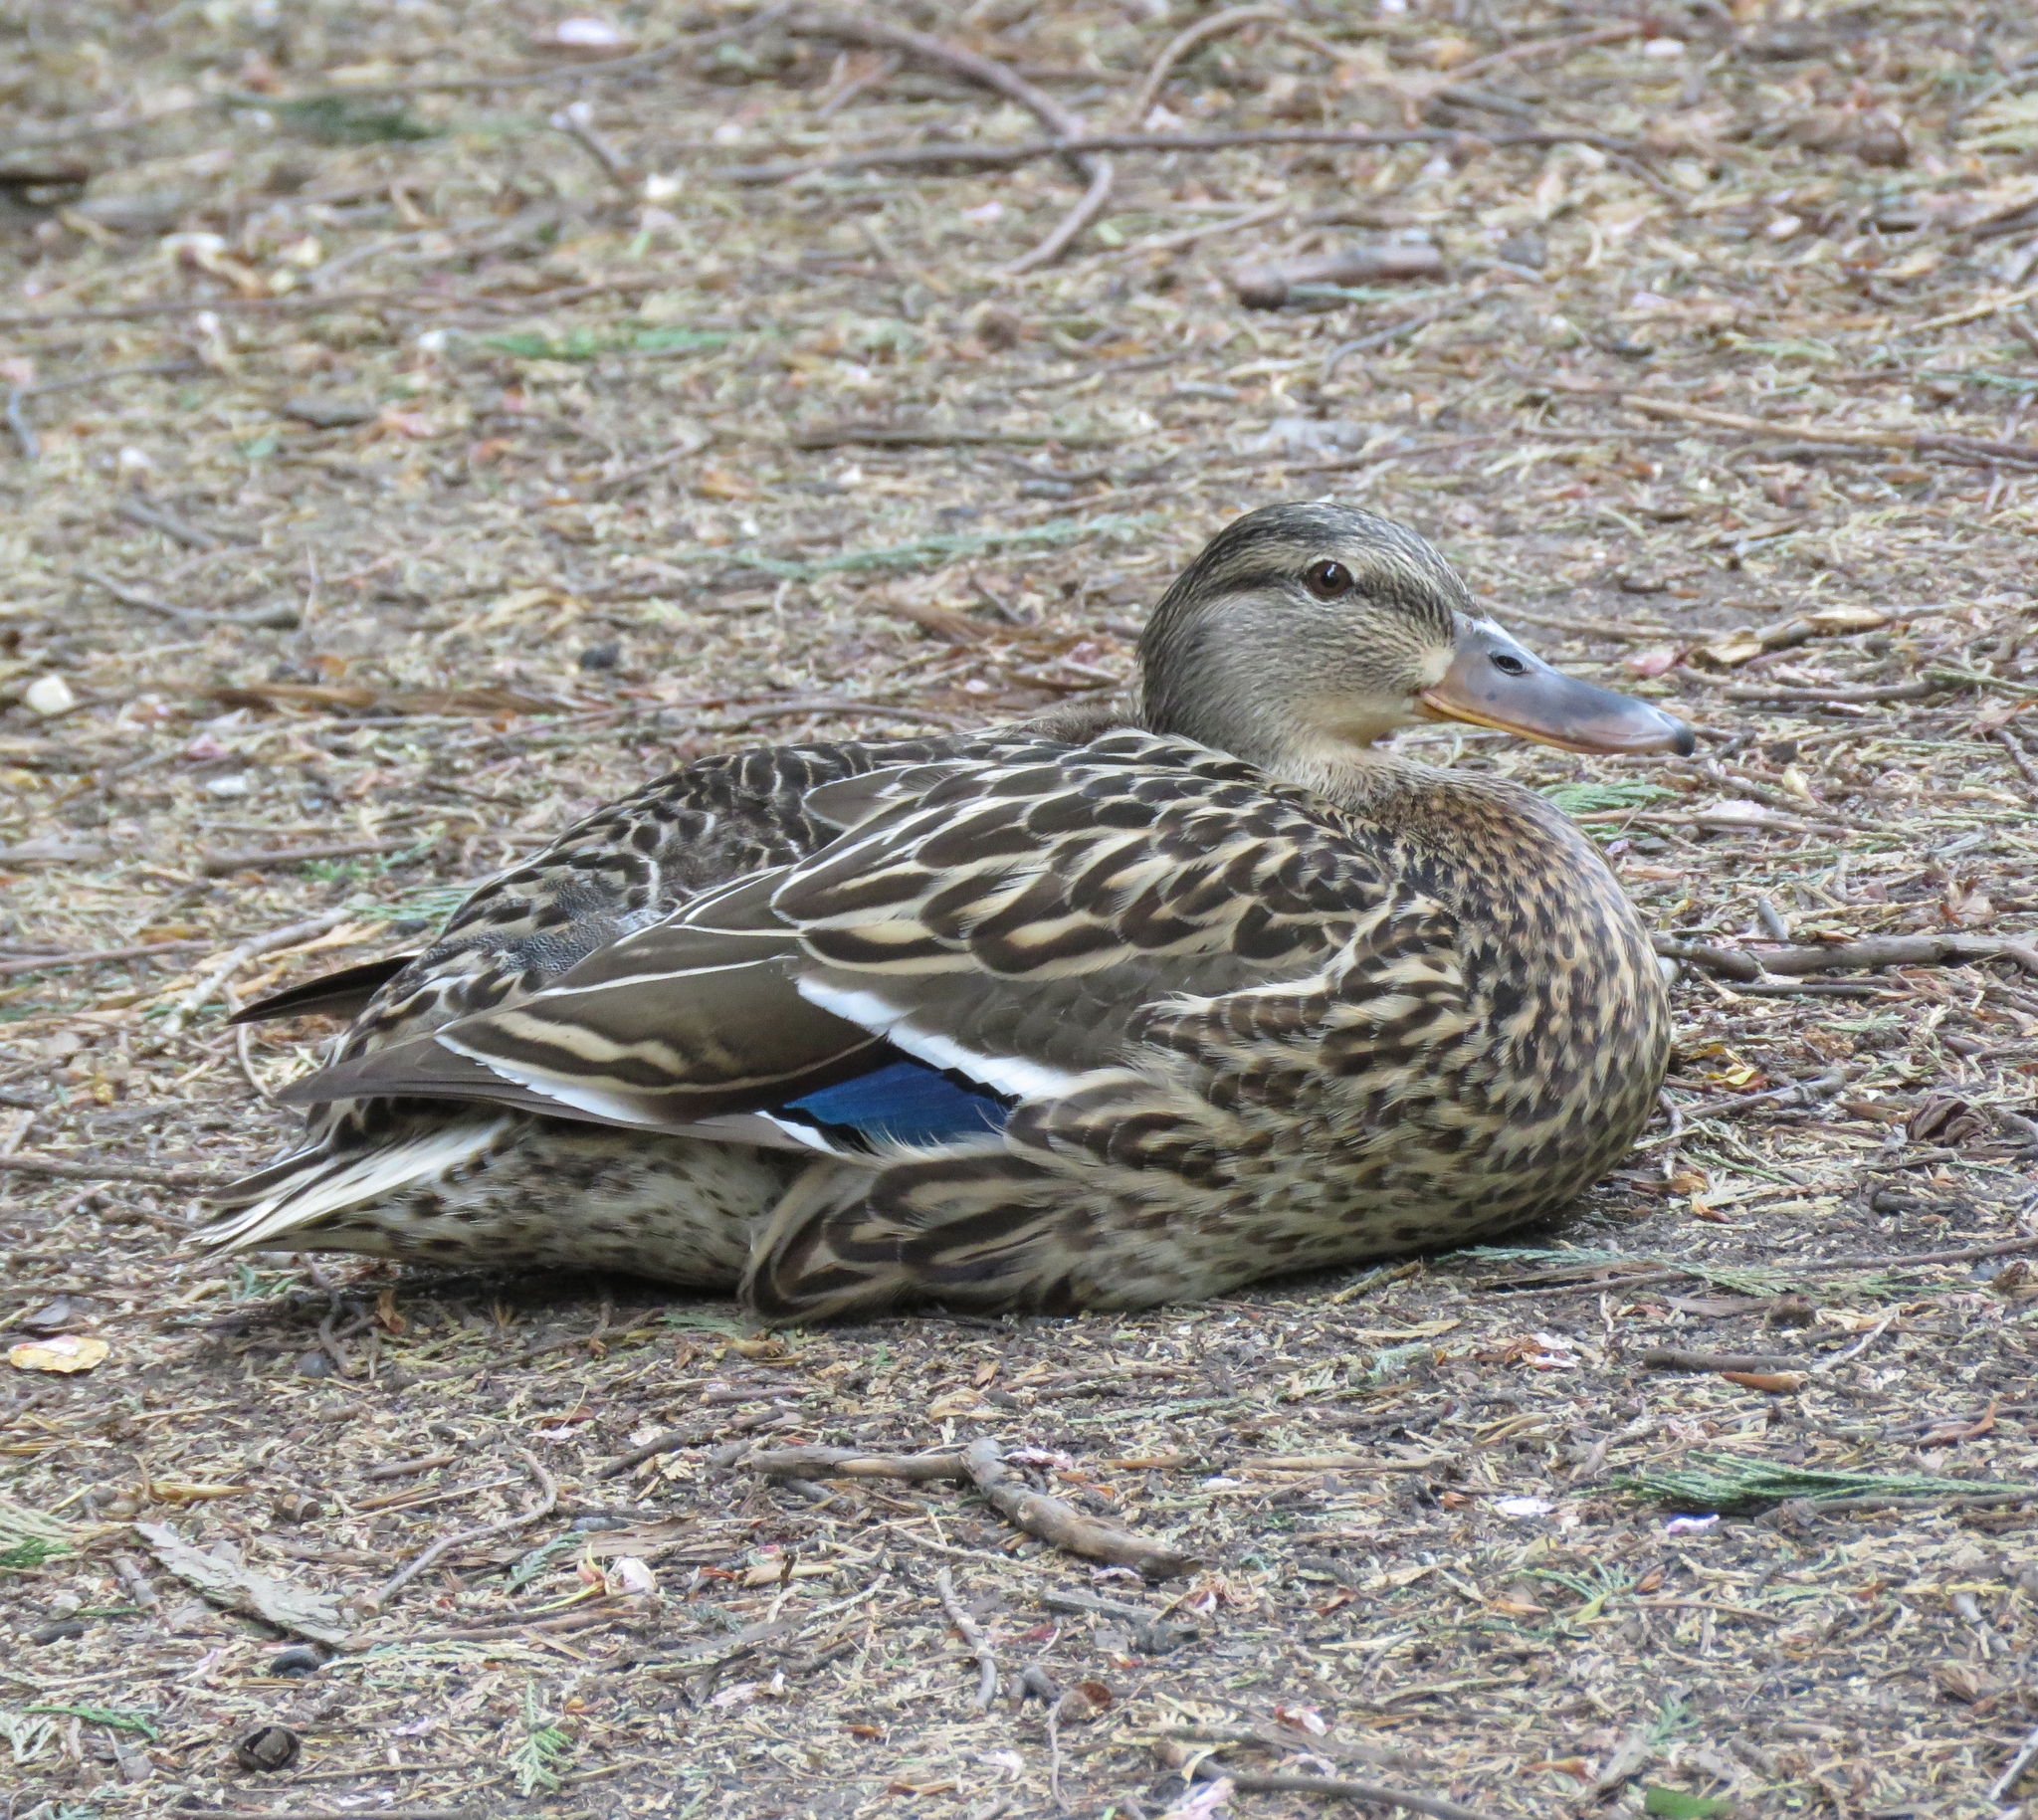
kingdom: Animalia
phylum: Chordata
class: Aves
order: Anseriformes
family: Anatidae
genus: Anas
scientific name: Anas platyrhynchos
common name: Mallard
